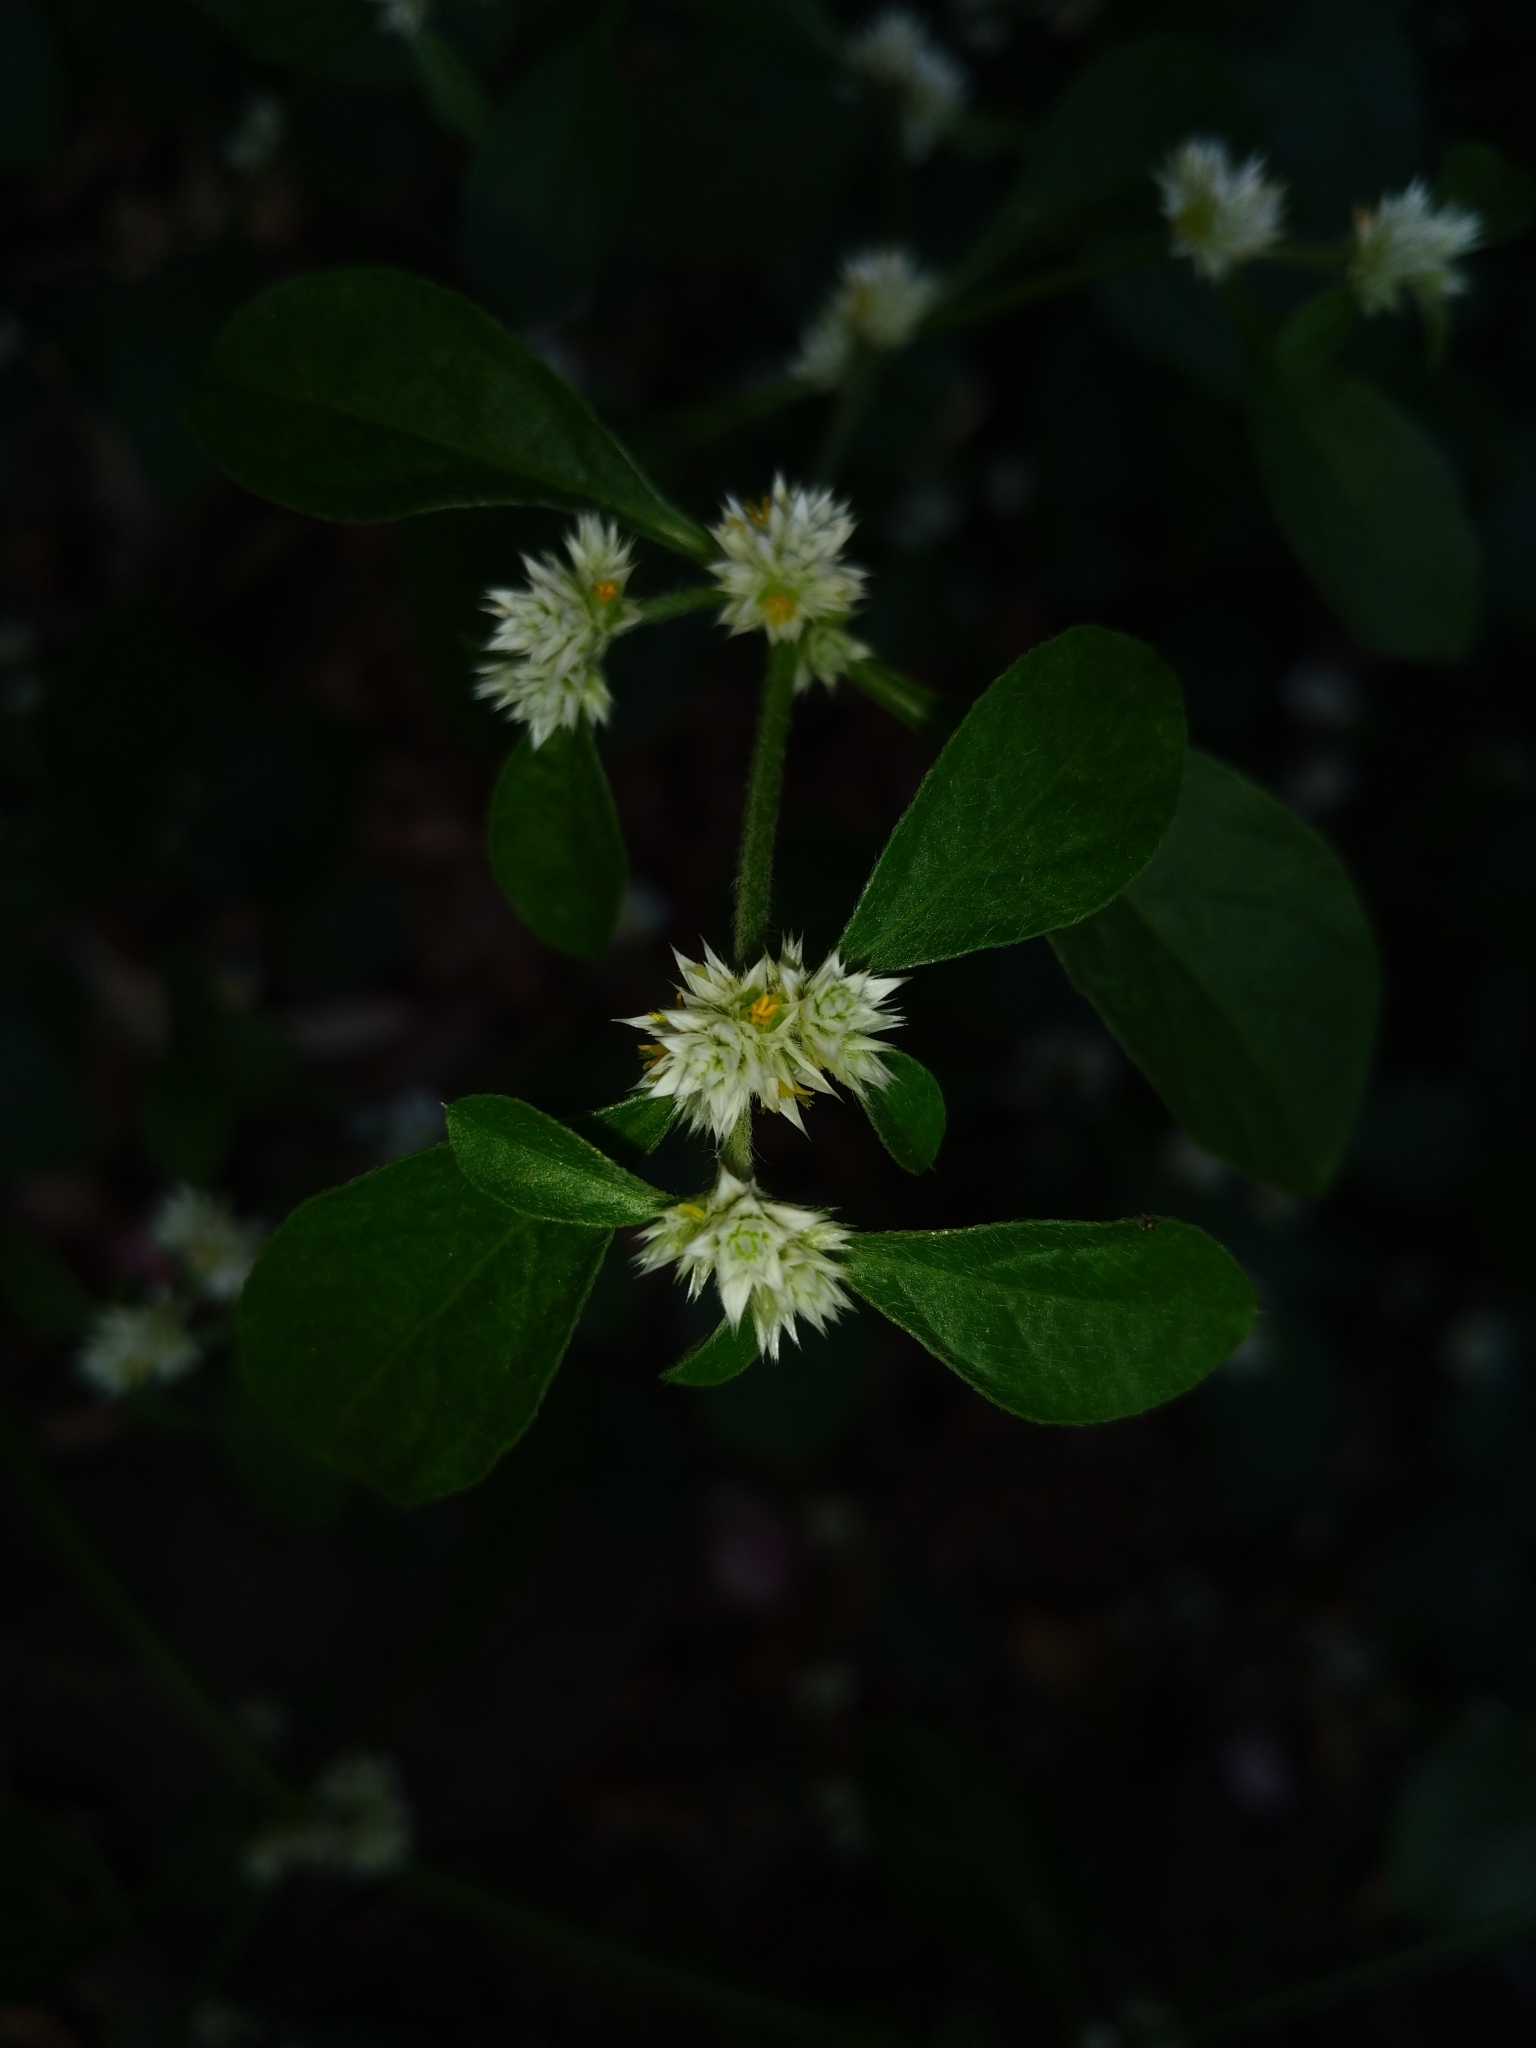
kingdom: Plantae
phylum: Tracheophyta
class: Magnoliopsida
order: Caryophyllales
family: Amaranthaceae
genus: Alternanthera
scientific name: Alternanthera bettzickiana
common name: Calico-plant
